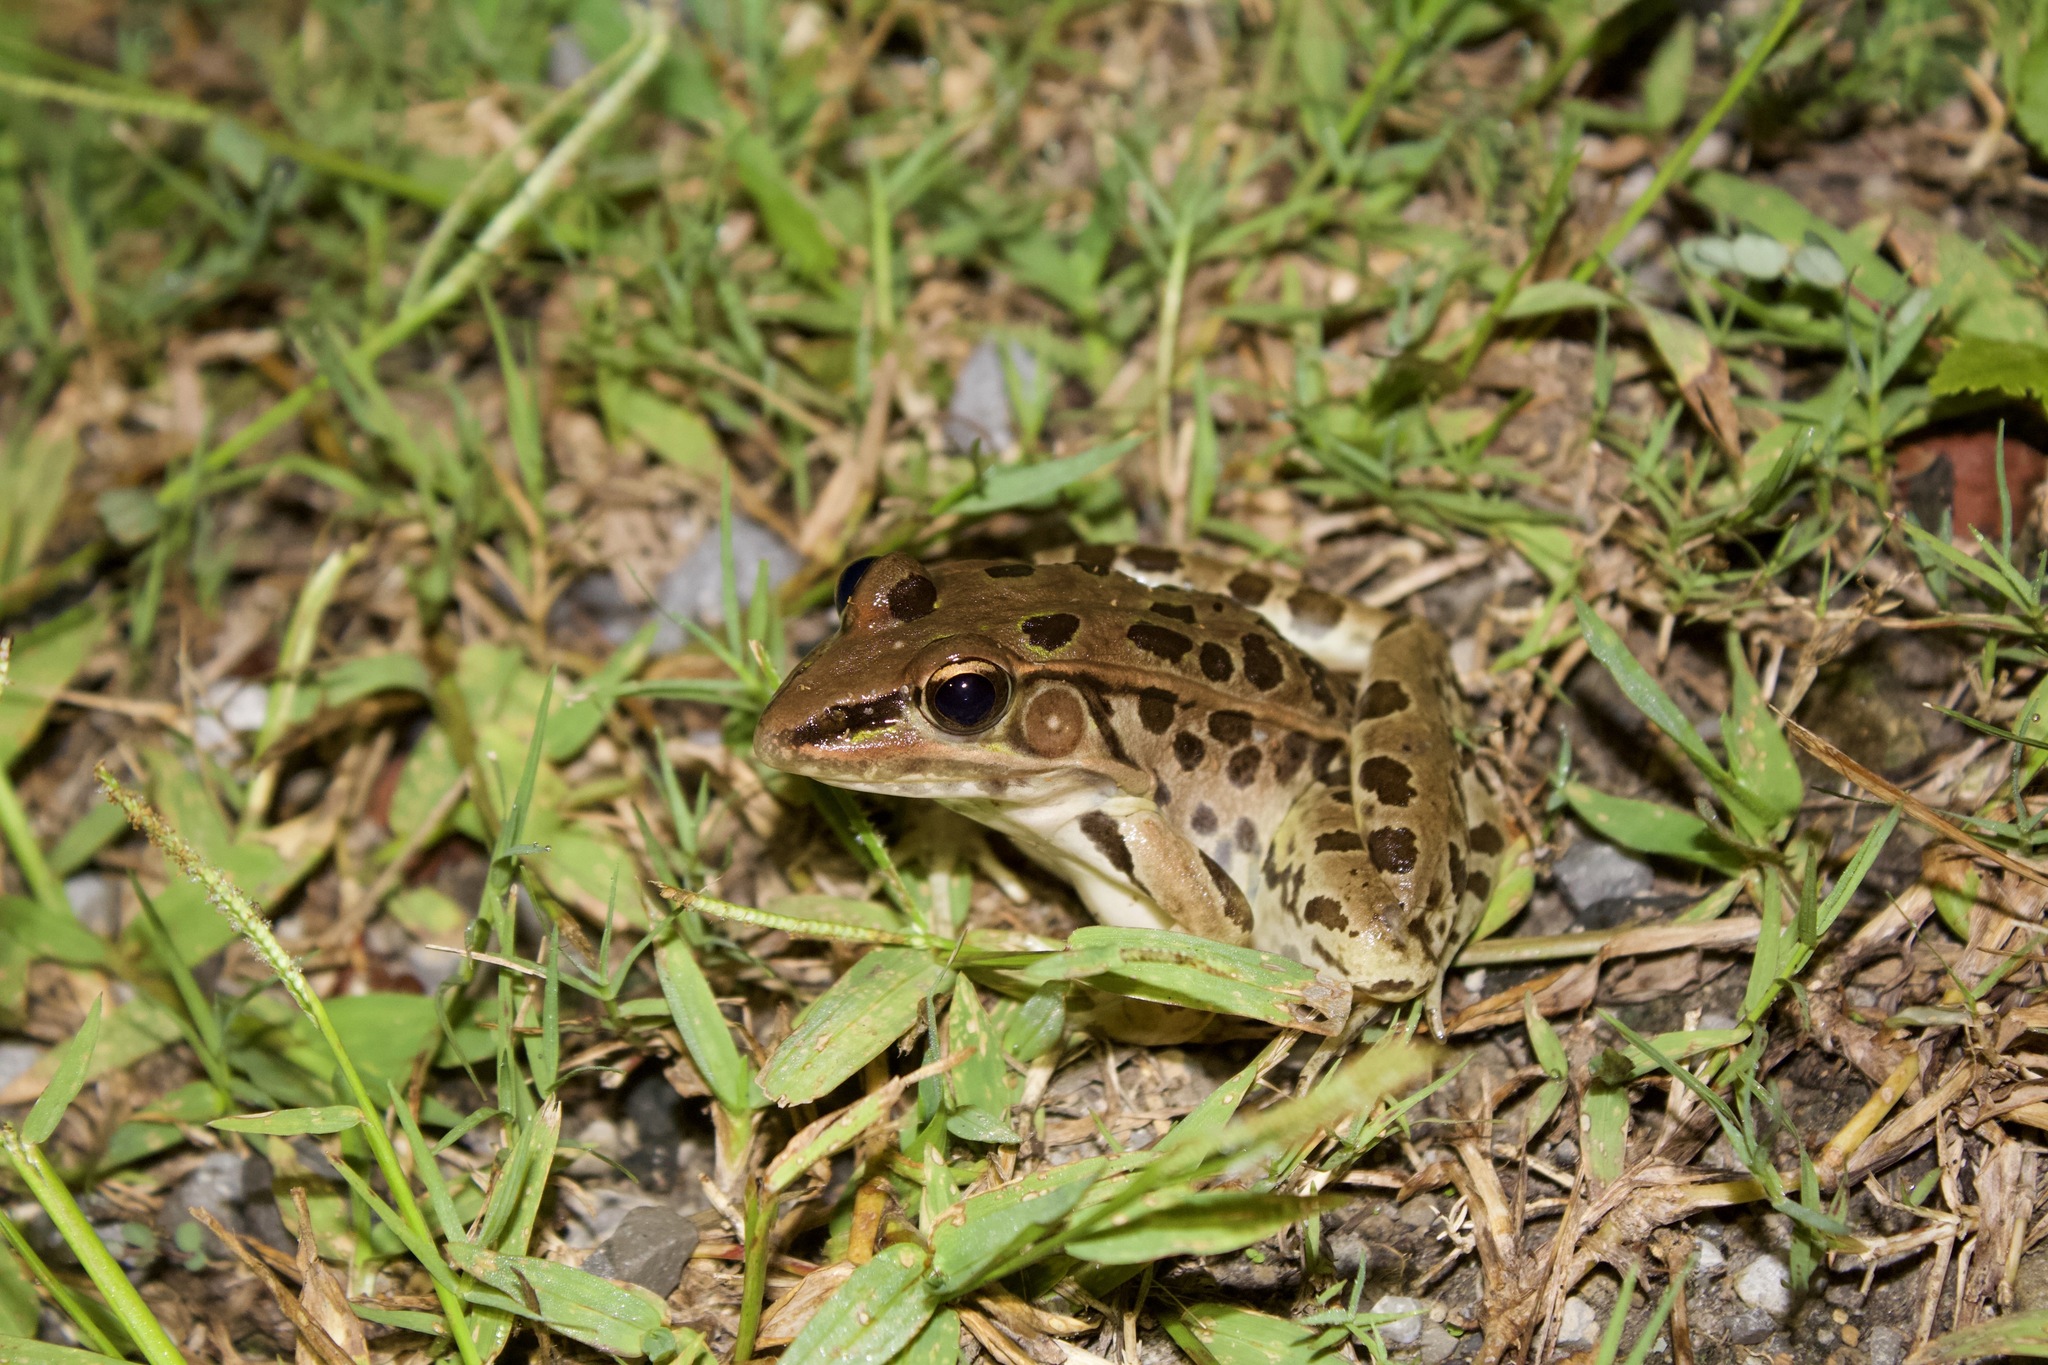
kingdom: Animalia
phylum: Chordata
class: Amphibia
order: Anura
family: Ranidae
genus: Lithobates
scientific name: Lithobates sphenocephalus
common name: Southern leopard frog
